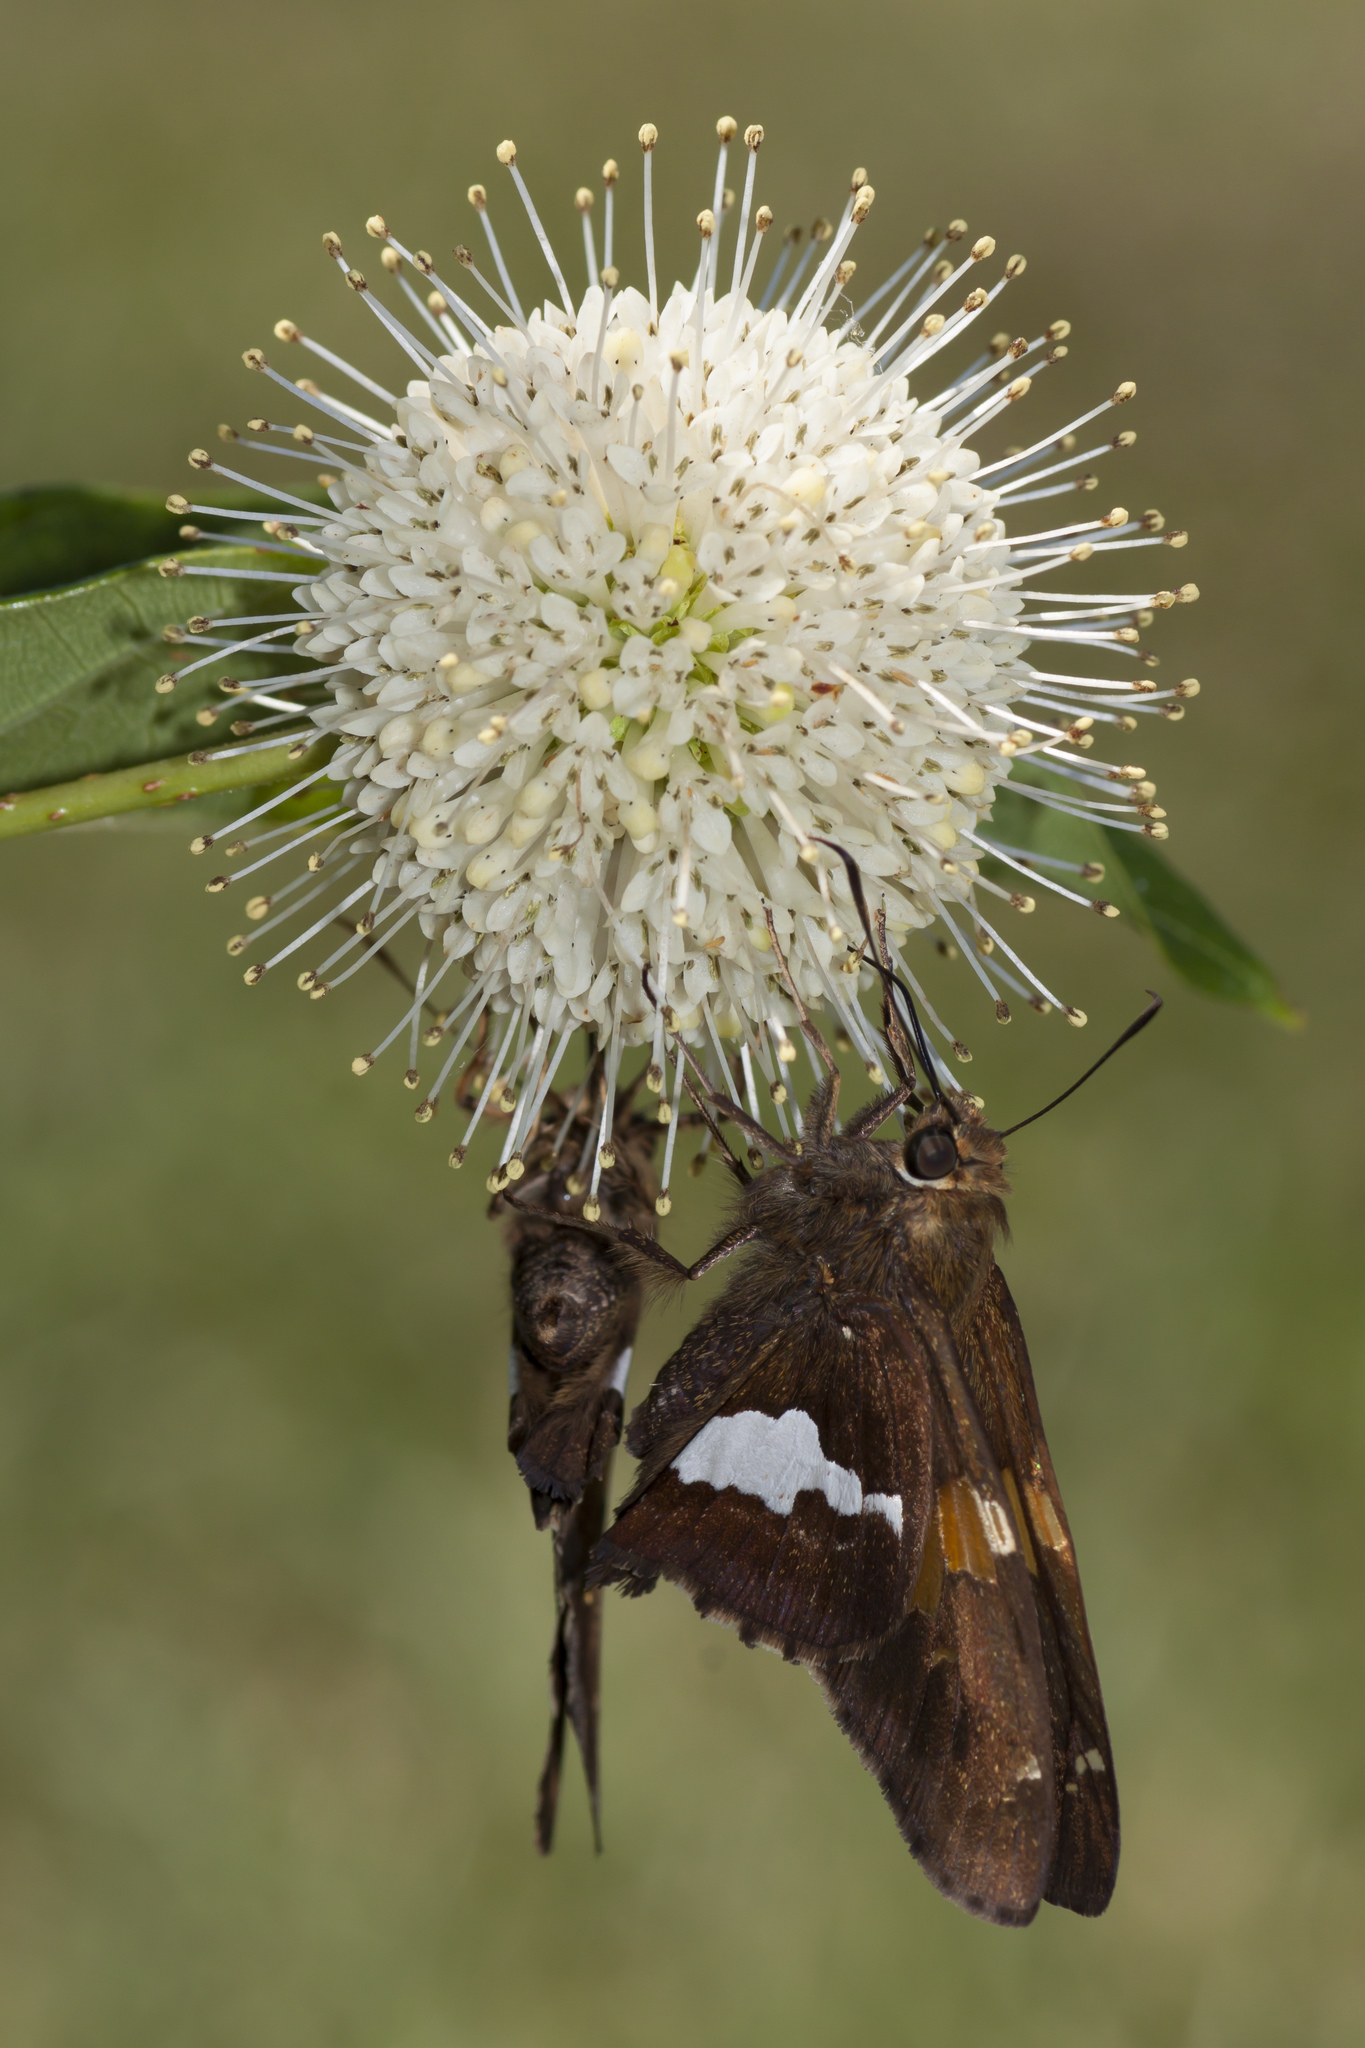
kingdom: Animalia
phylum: Arthropoda
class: Insecta
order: Lepidoptera
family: Hesperiidae
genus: Epargyreus
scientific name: Epargyreus clarus
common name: Silver-spotted skipper
